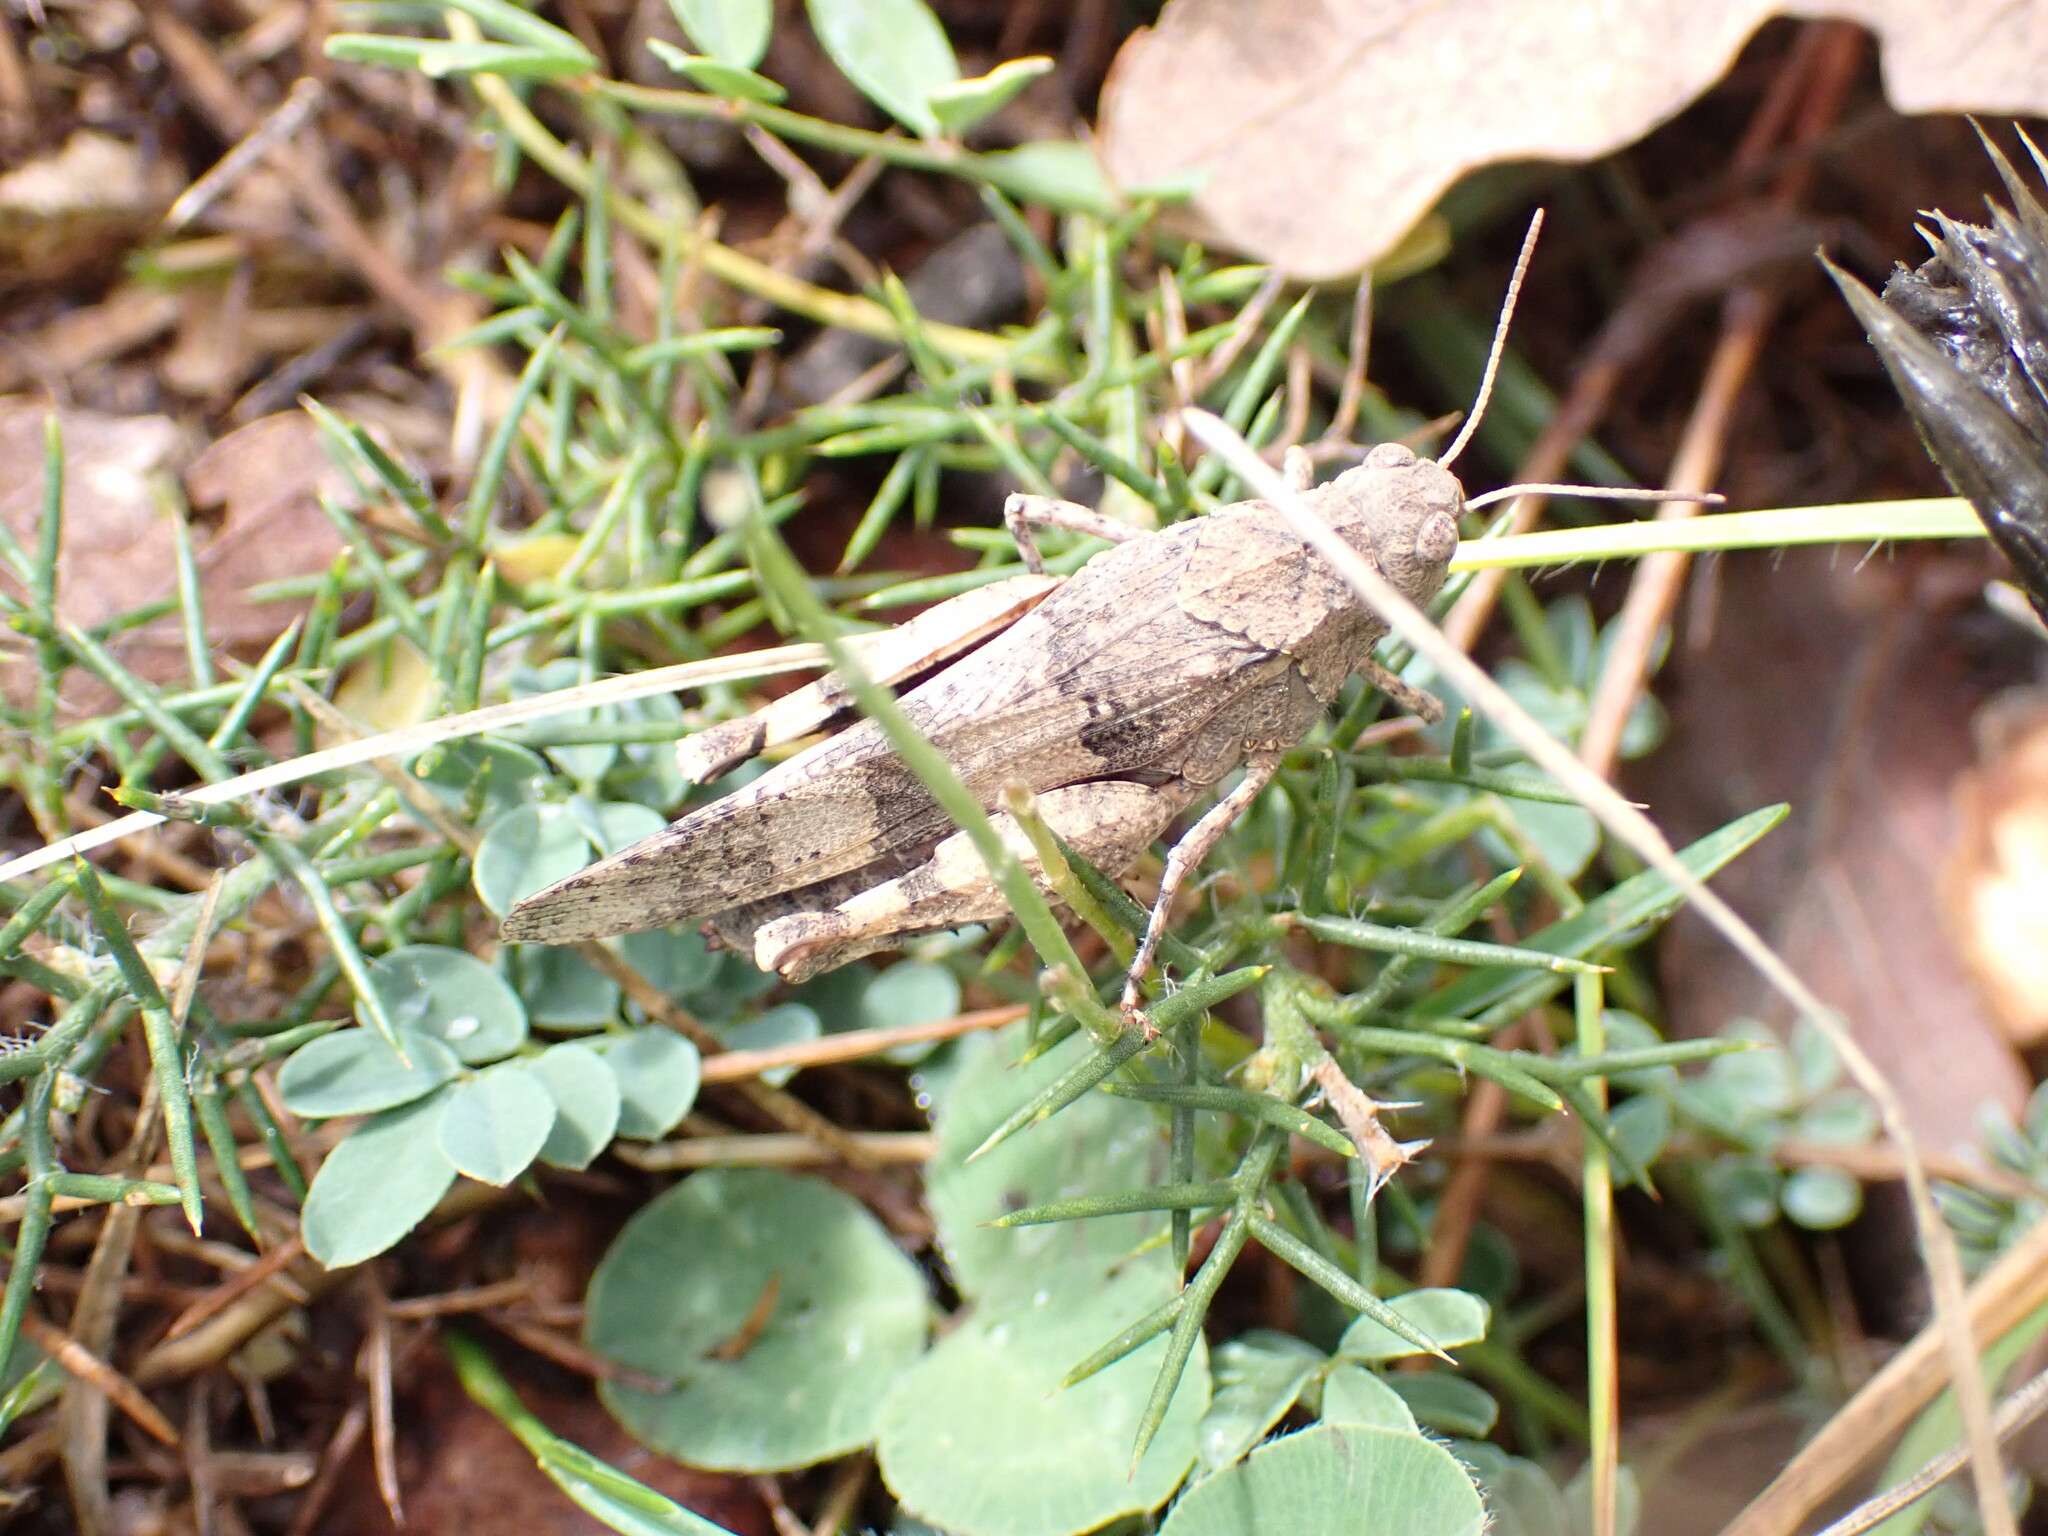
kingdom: Animalia
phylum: Arthropoda
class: Insecta
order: Orthoptera
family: Acrididae
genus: Oedipoda
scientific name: Oedipoda caerulescens
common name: Blue-winged grasshopper
